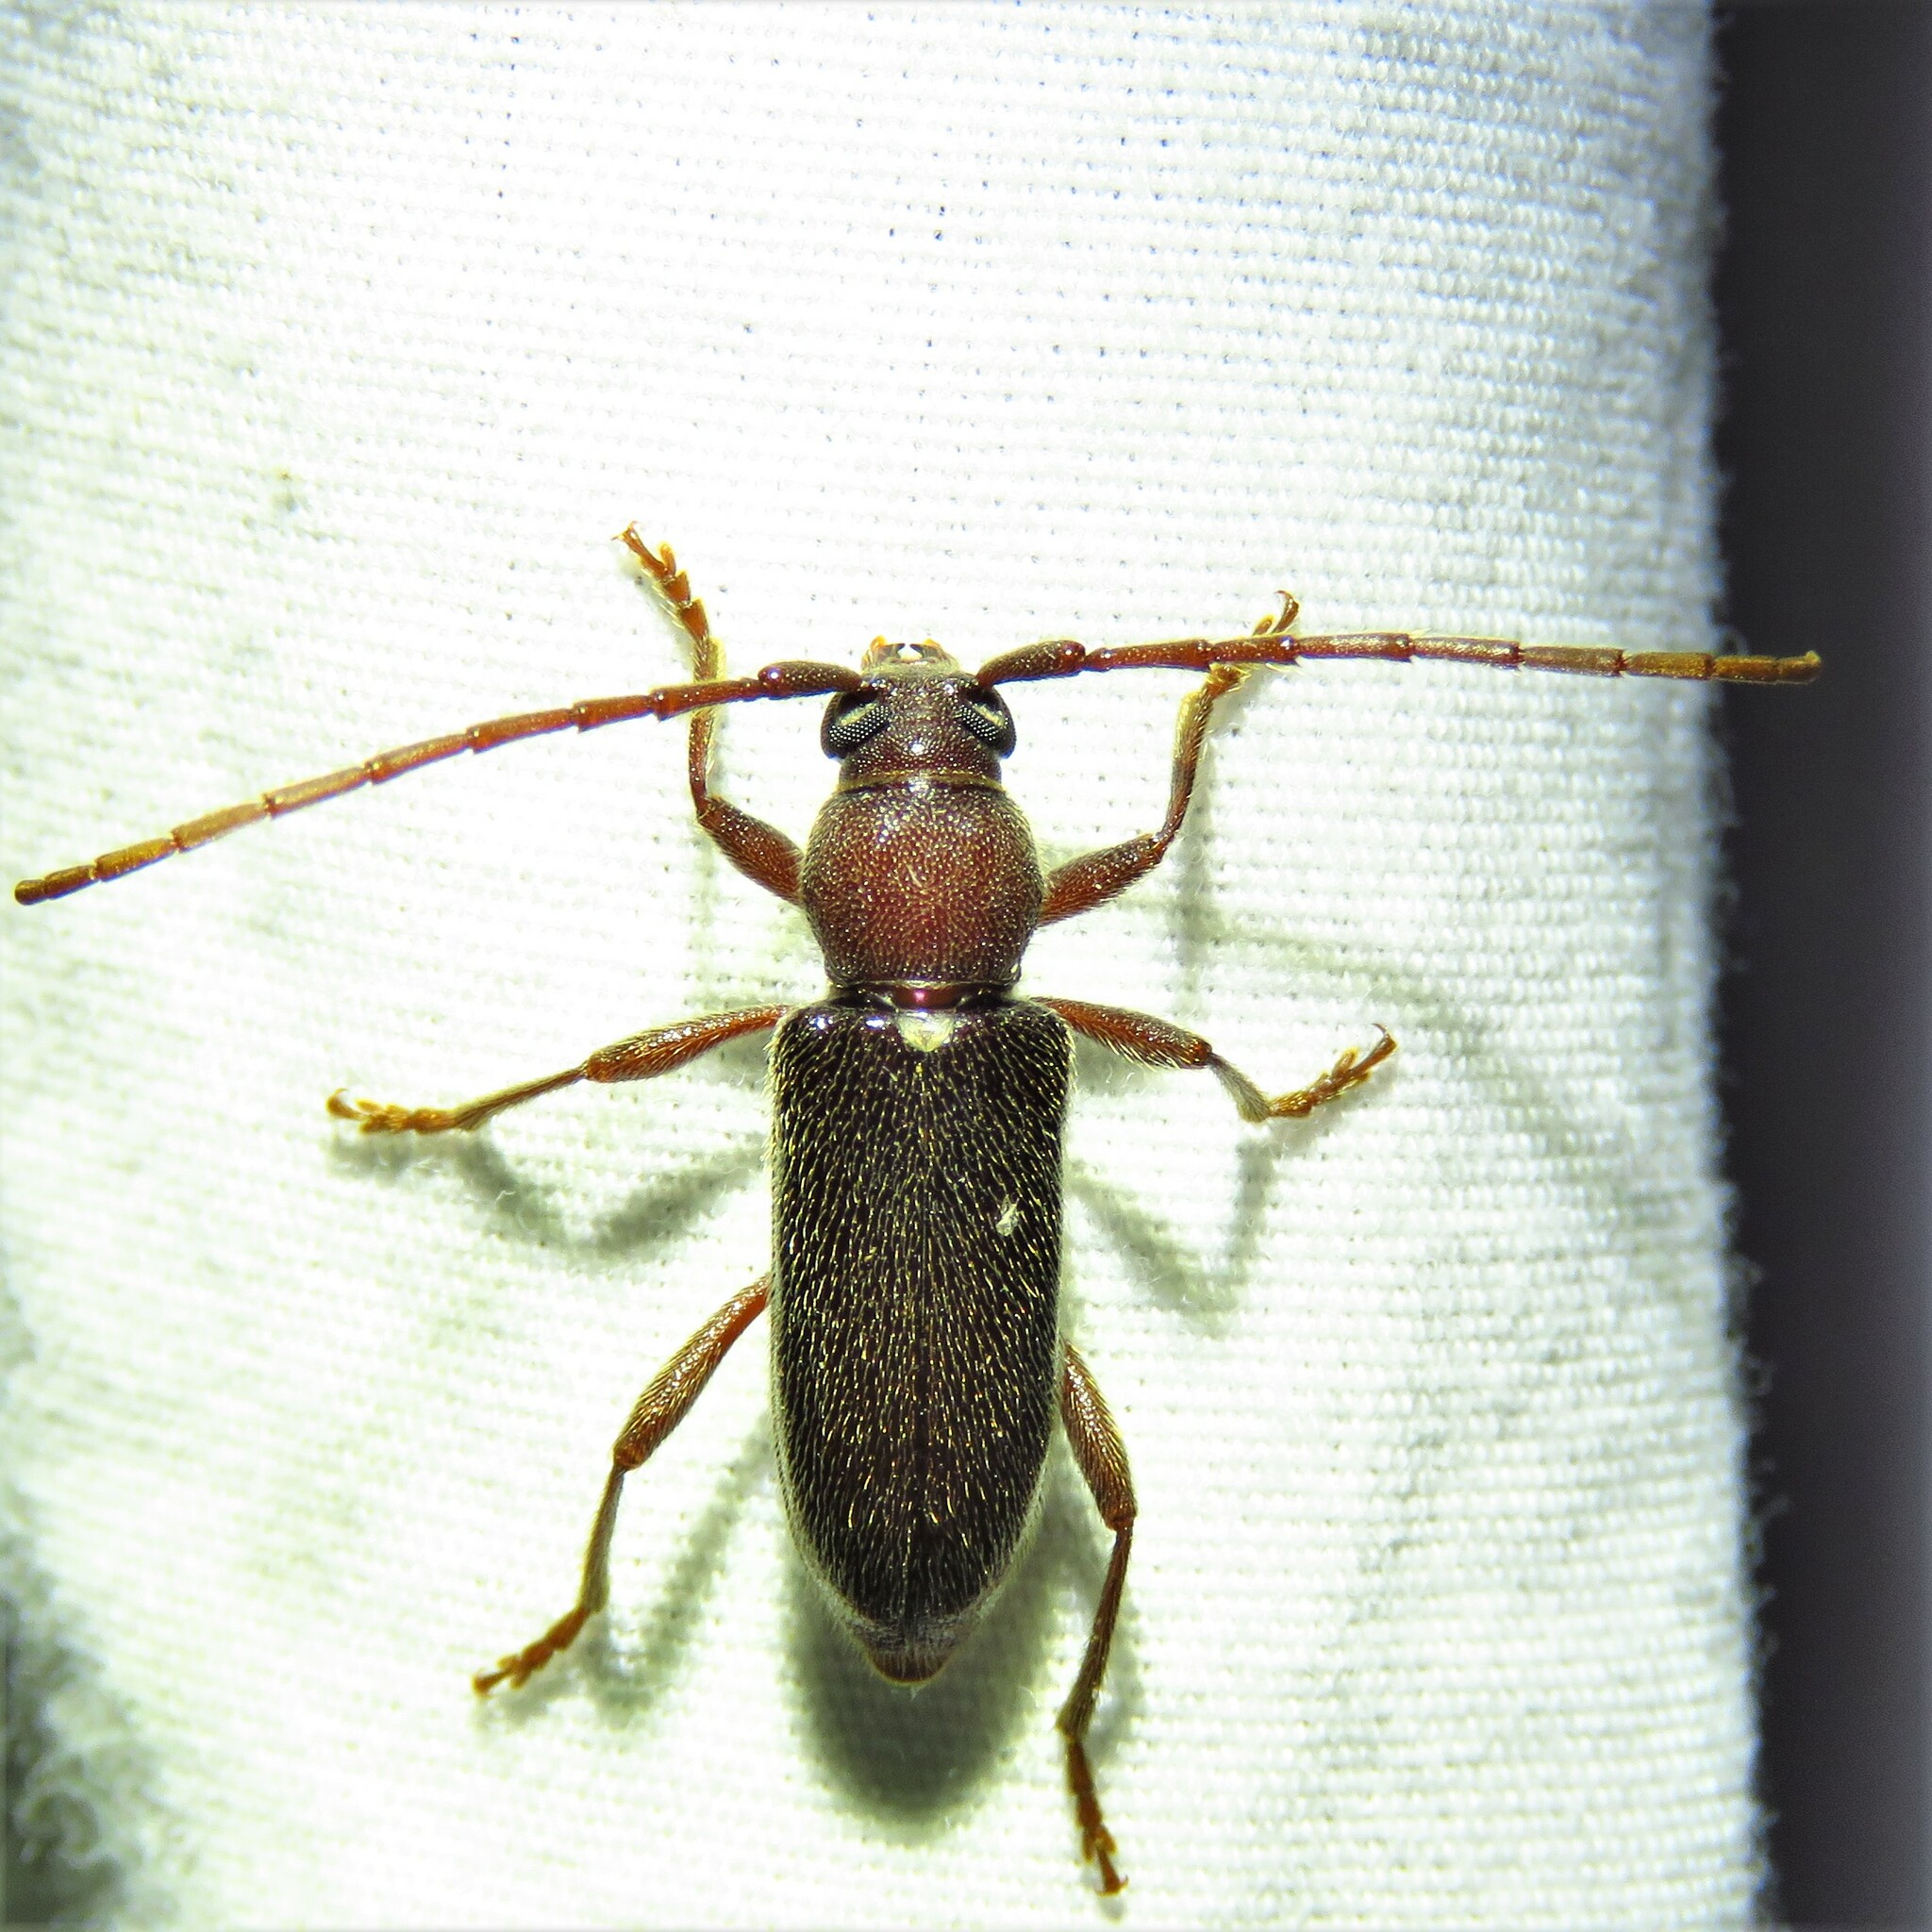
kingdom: Animalia
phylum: Arthropoda
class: Insecta
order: Coleoptera
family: Cerambycidae
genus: Anelaphus
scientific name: Anelaphus moestus
